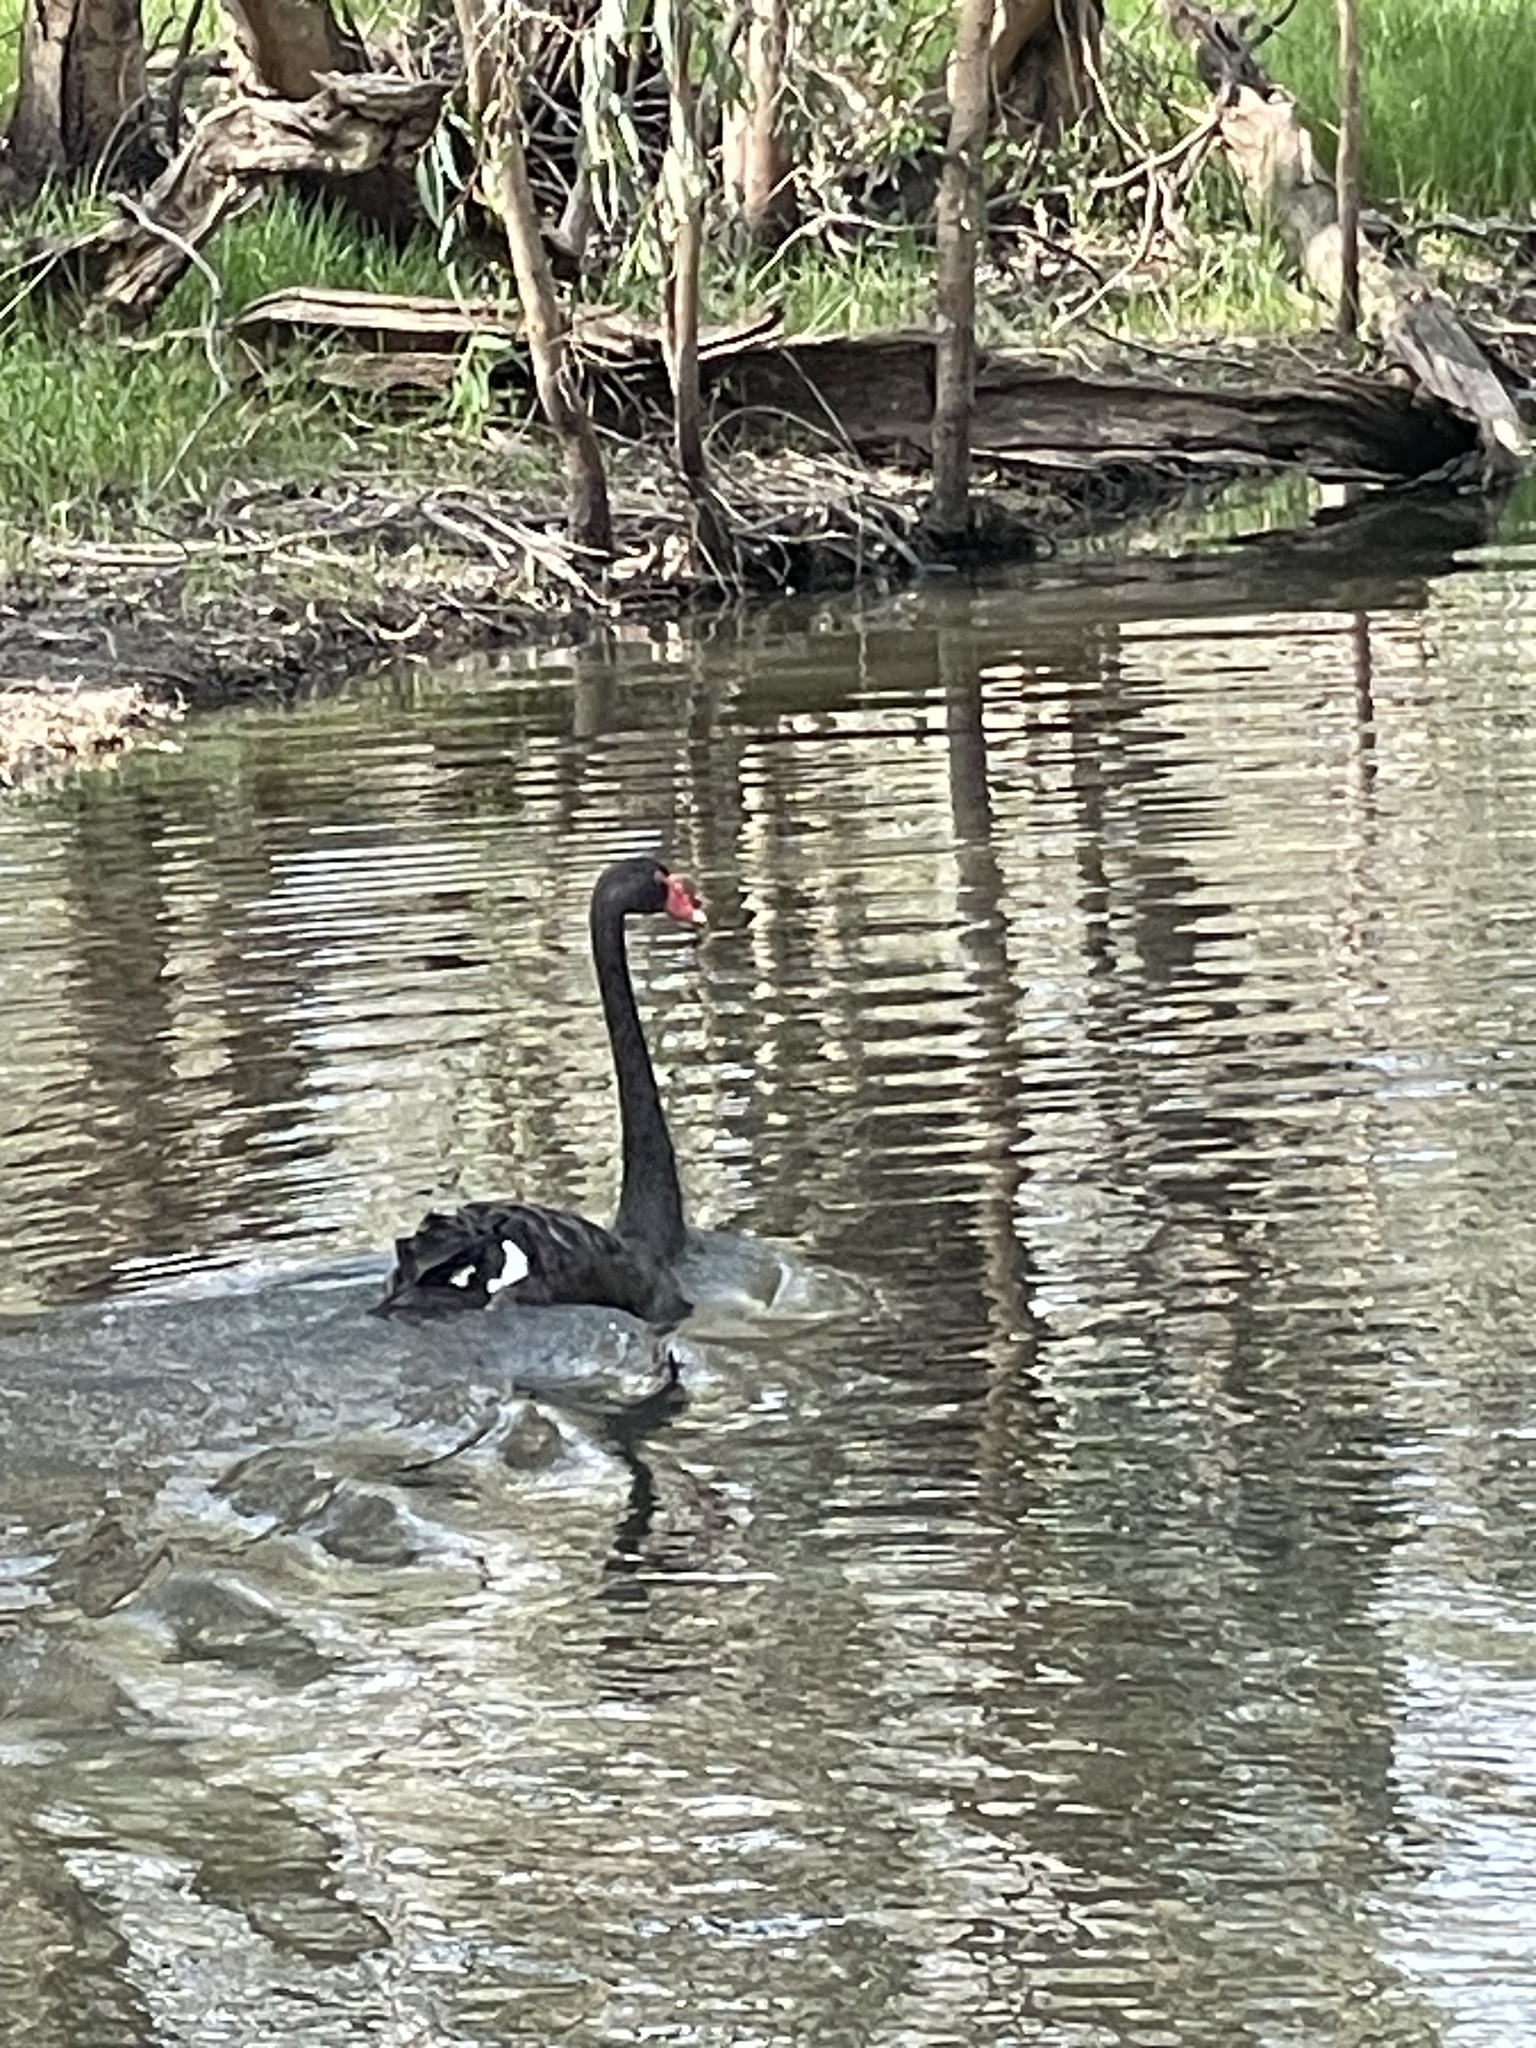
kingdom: Animalia
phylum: Chordata
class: Aves
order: Anseriformes
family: Anatidae
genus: Cygnus
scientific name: Cygnus atratus
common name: Black swan
